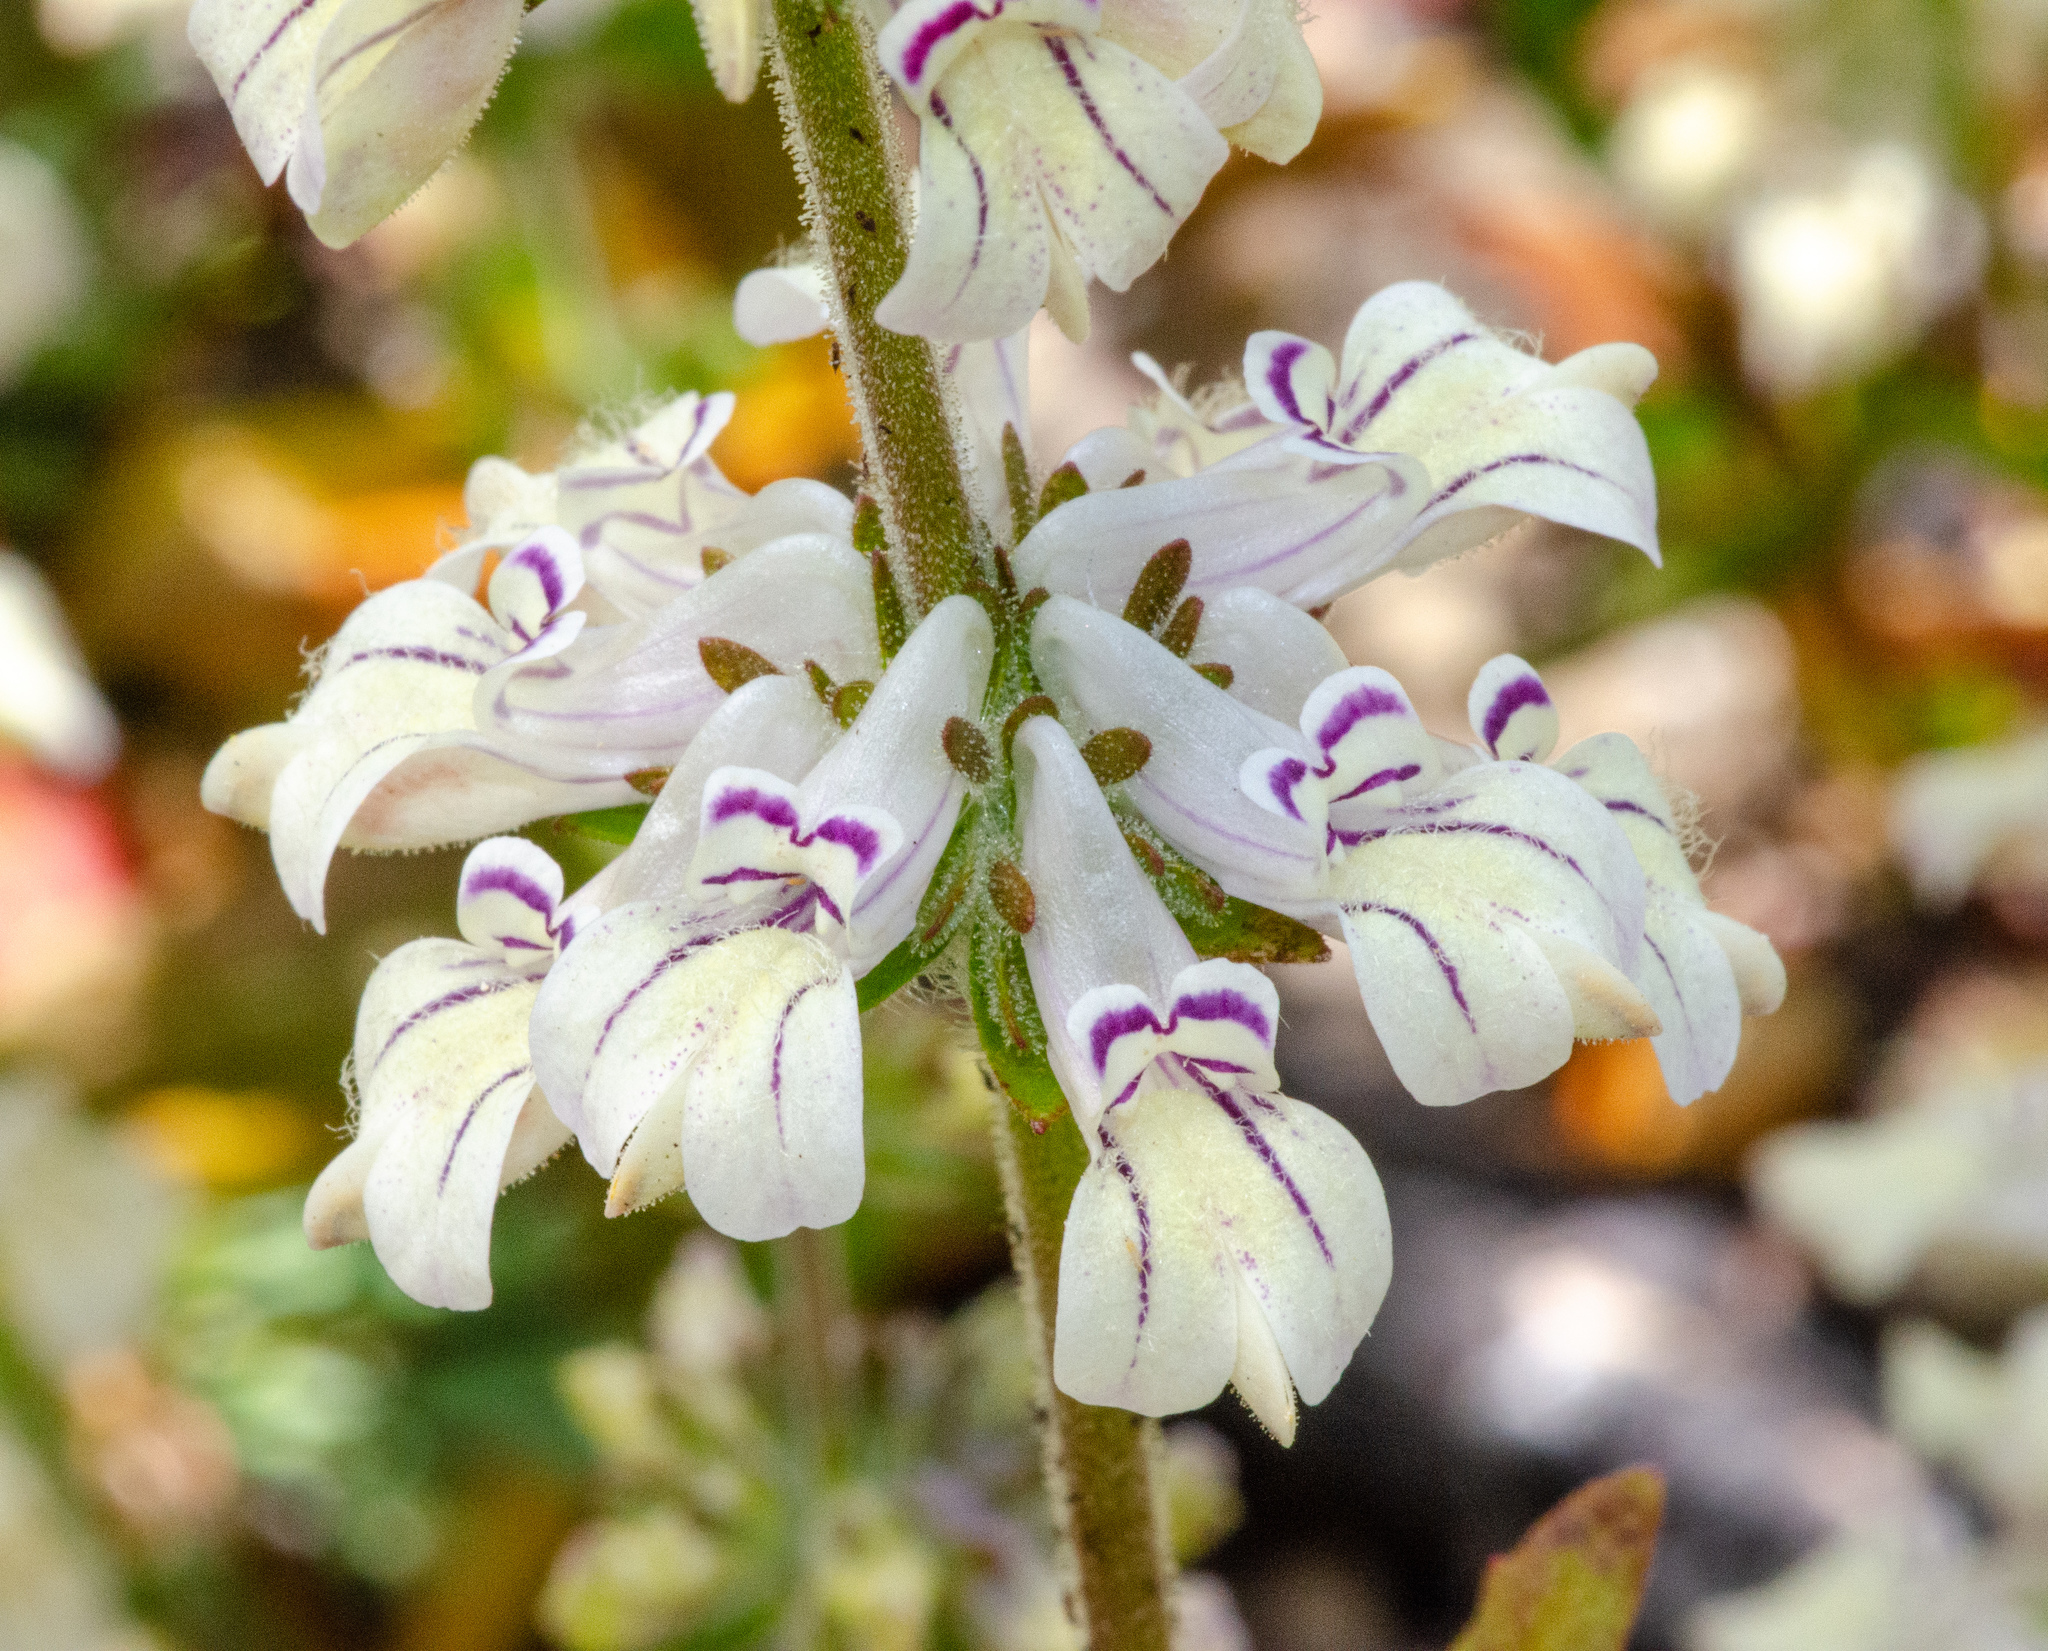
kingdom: Plantae
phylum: Tracheophyta
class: Magnoliopsida
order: Lamiales
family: Plantaginaceae
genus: Collinsia
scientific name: Collinsia tinctoria
